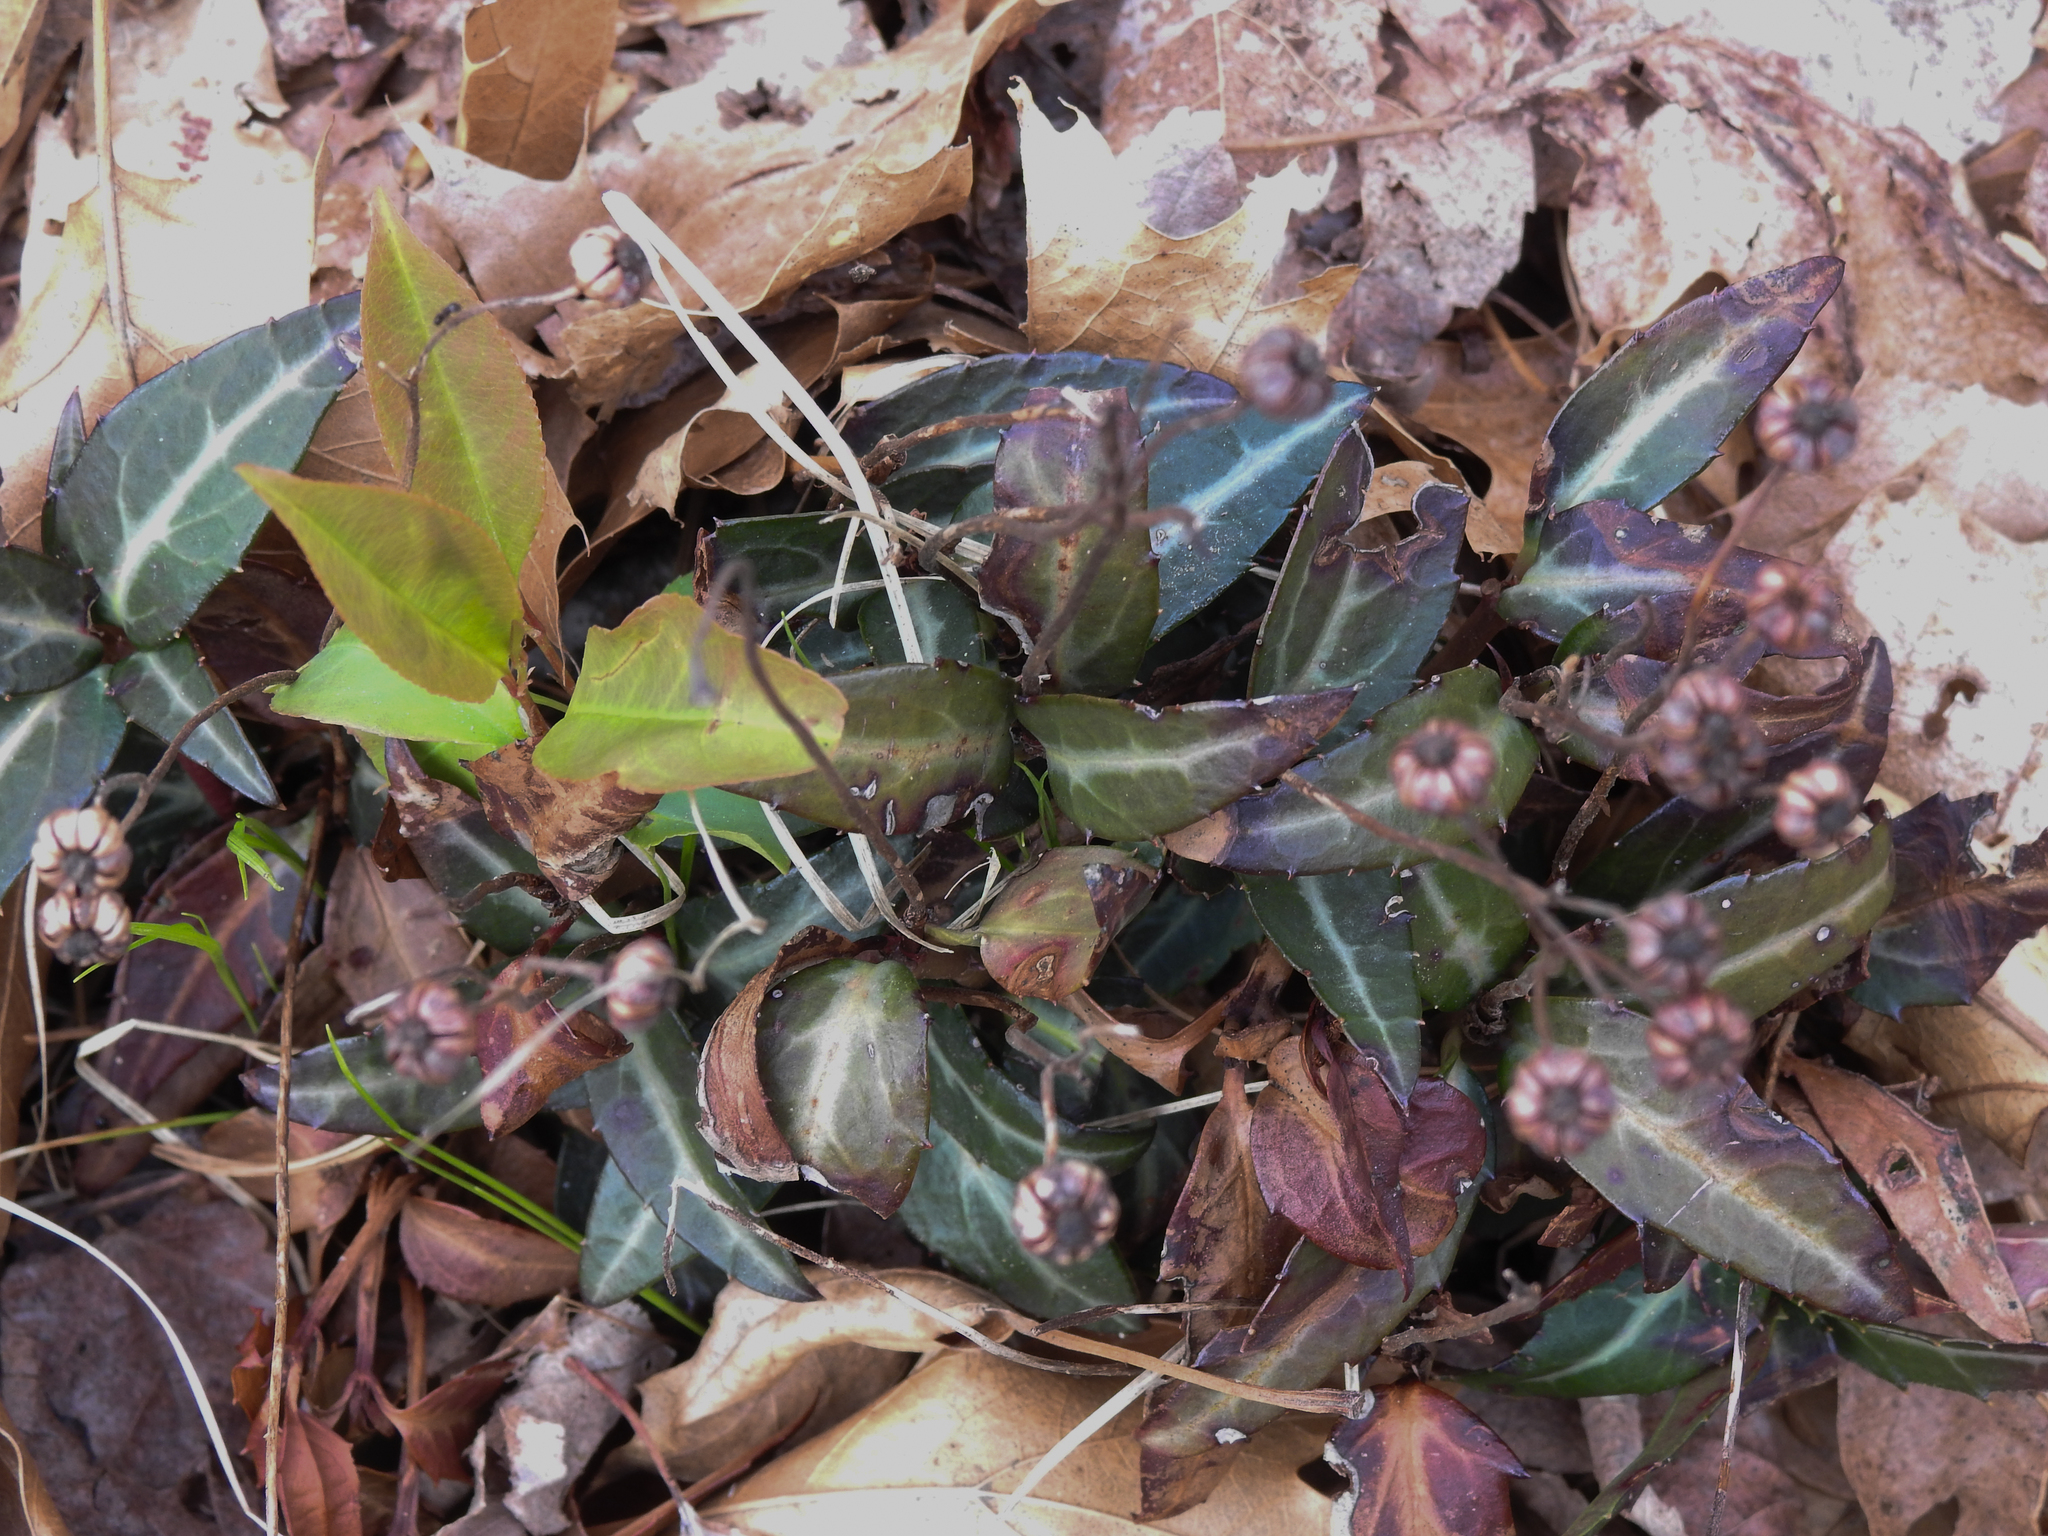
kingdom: Plantae
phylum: Tracheophyta
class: Magnoliopsida
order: Ericales
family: Ericaceae
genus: Chimaphila
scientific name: Chimaphila maculata
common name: Spotted pipsissewa
